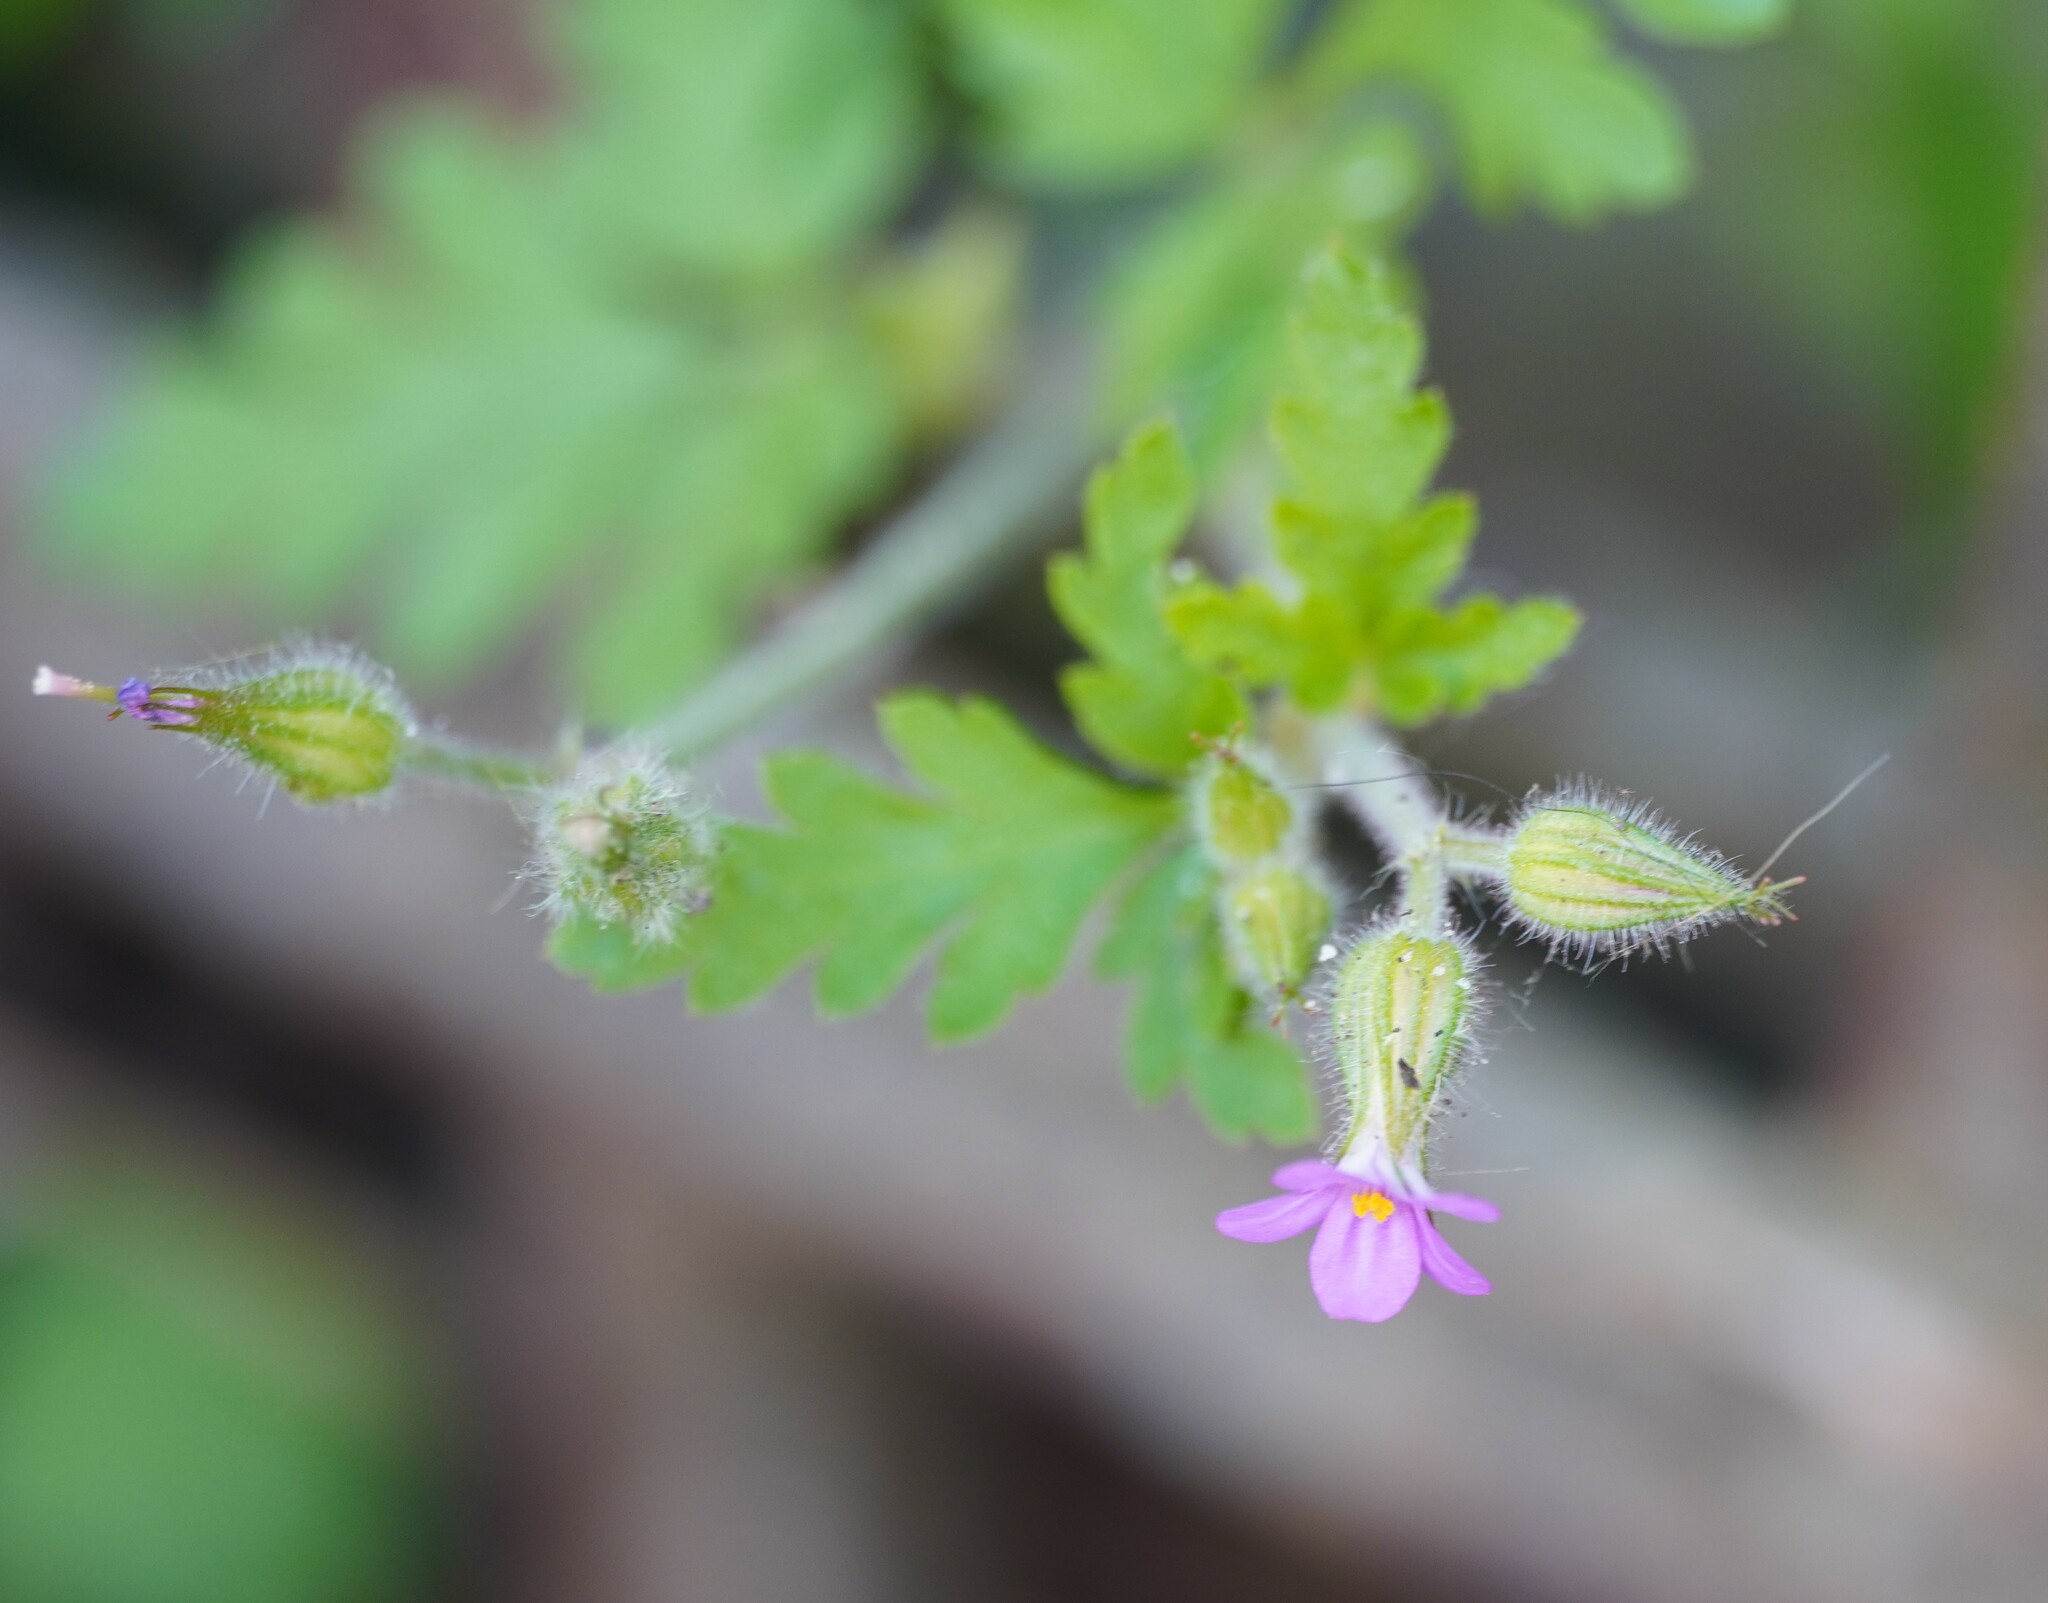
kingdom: Plantae
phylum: Tracheophyta
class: Magnoliopsida
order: Geraniales
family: Geraniaceae
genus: Geranium
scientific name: Geranium purpureum
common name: Little-robin
